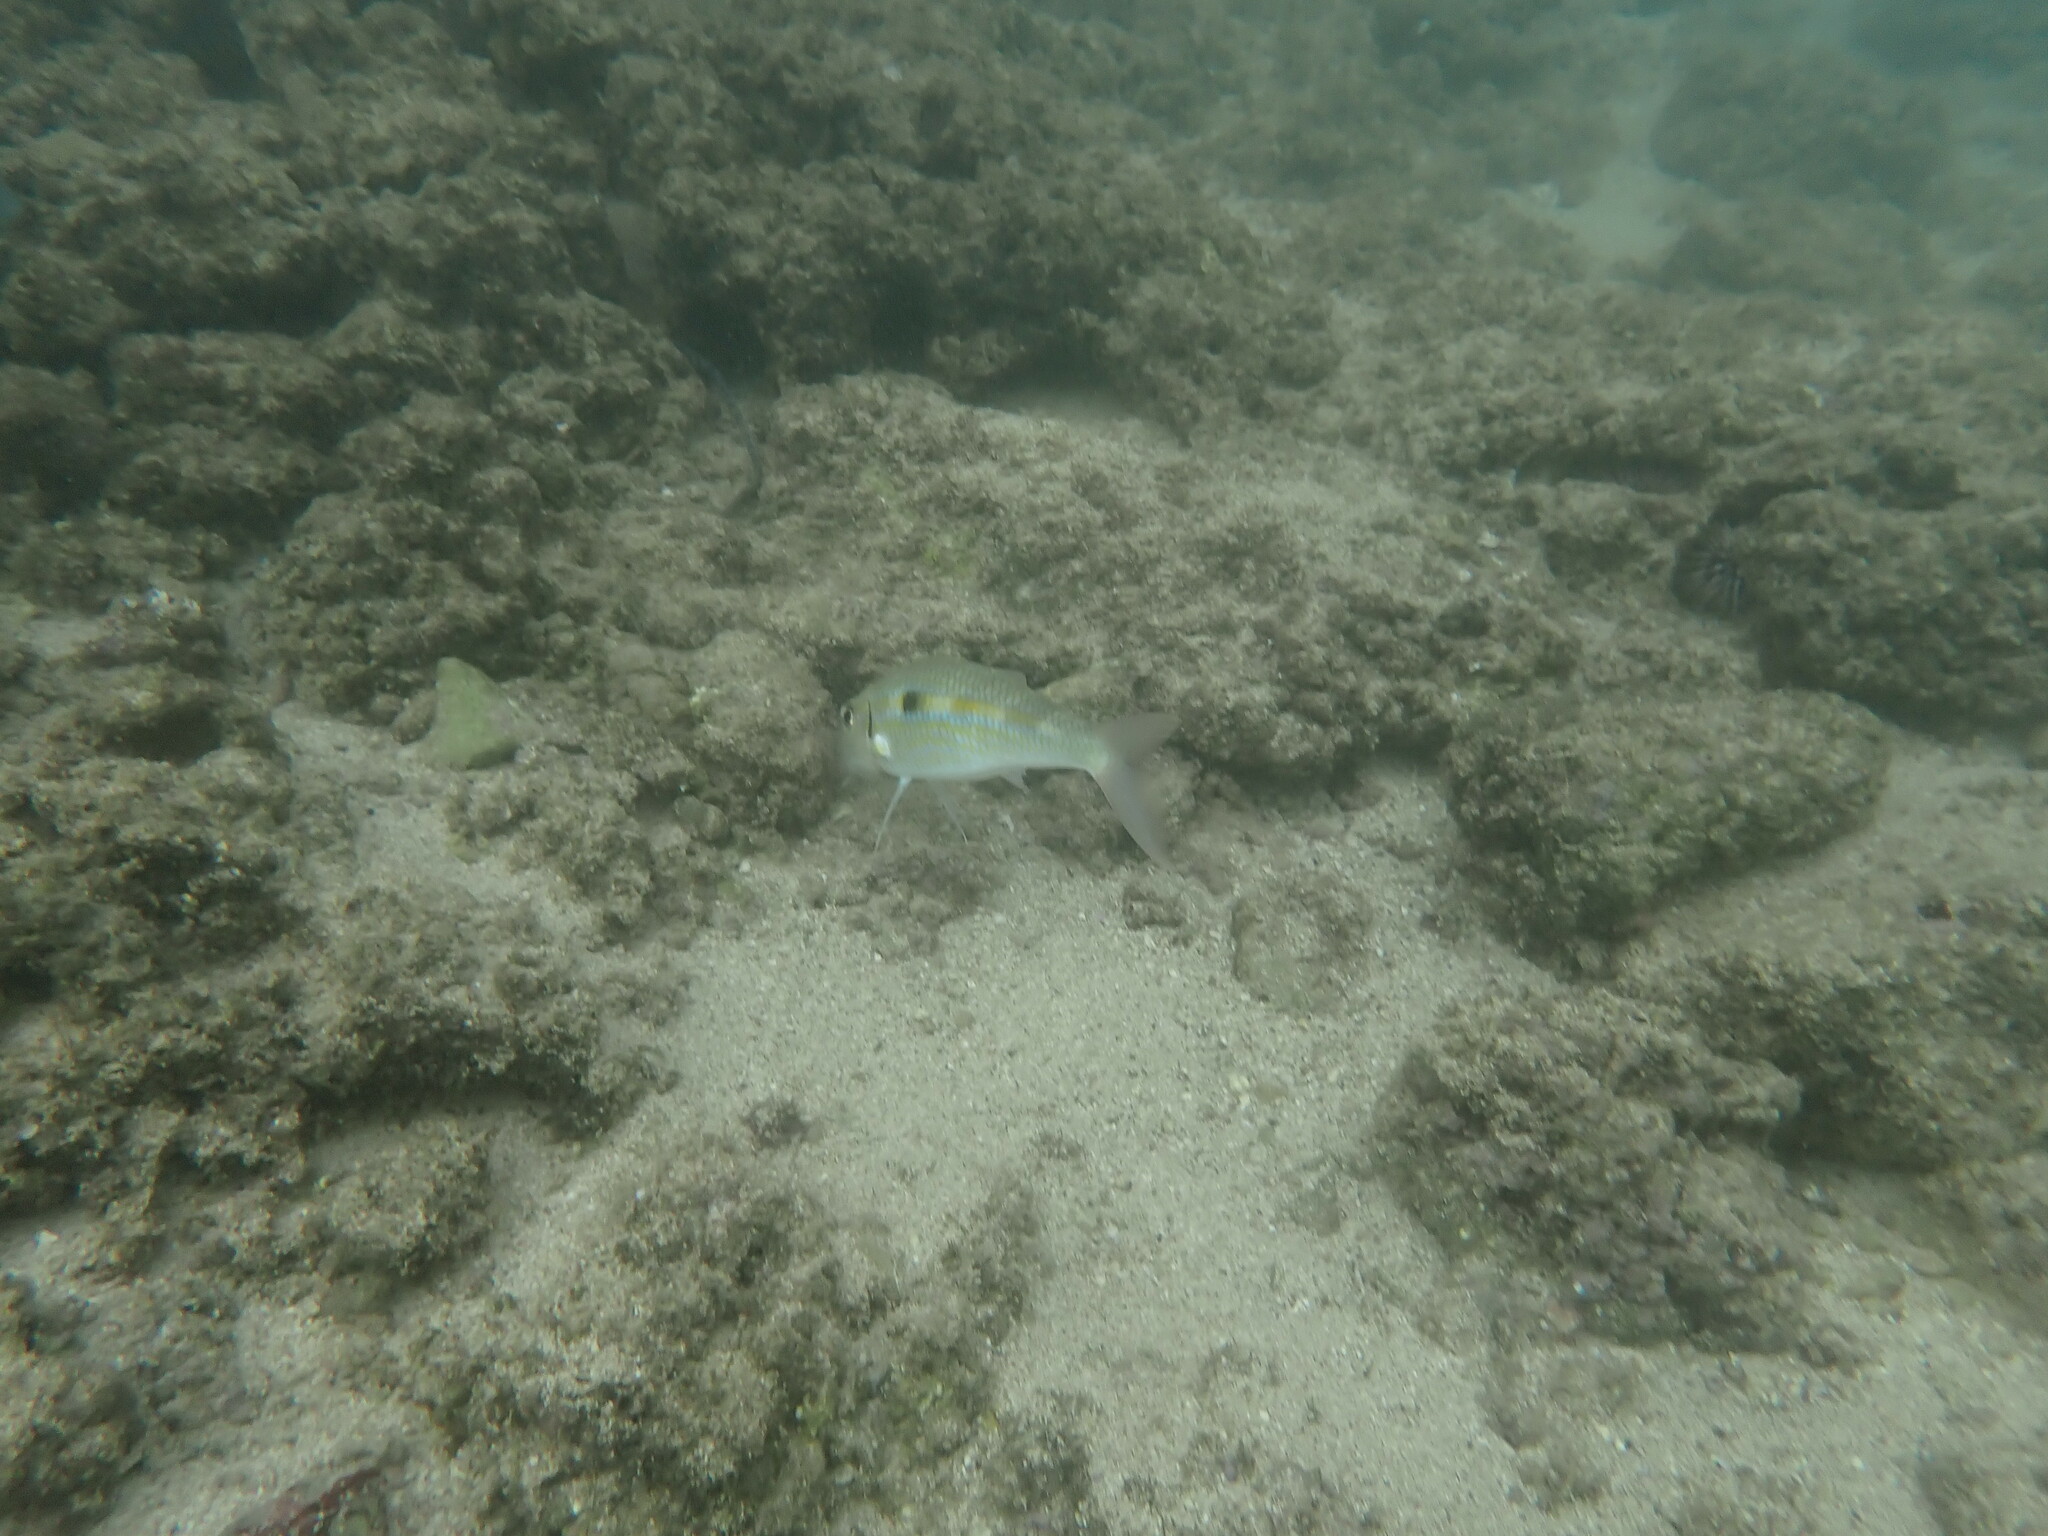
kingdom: Animalia
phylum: Chordata
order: Perciformes
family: Mullidae
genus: Mulloidichthys
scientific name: Mulloidichthys flavolineatus
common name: Yellowstripe goatfish
